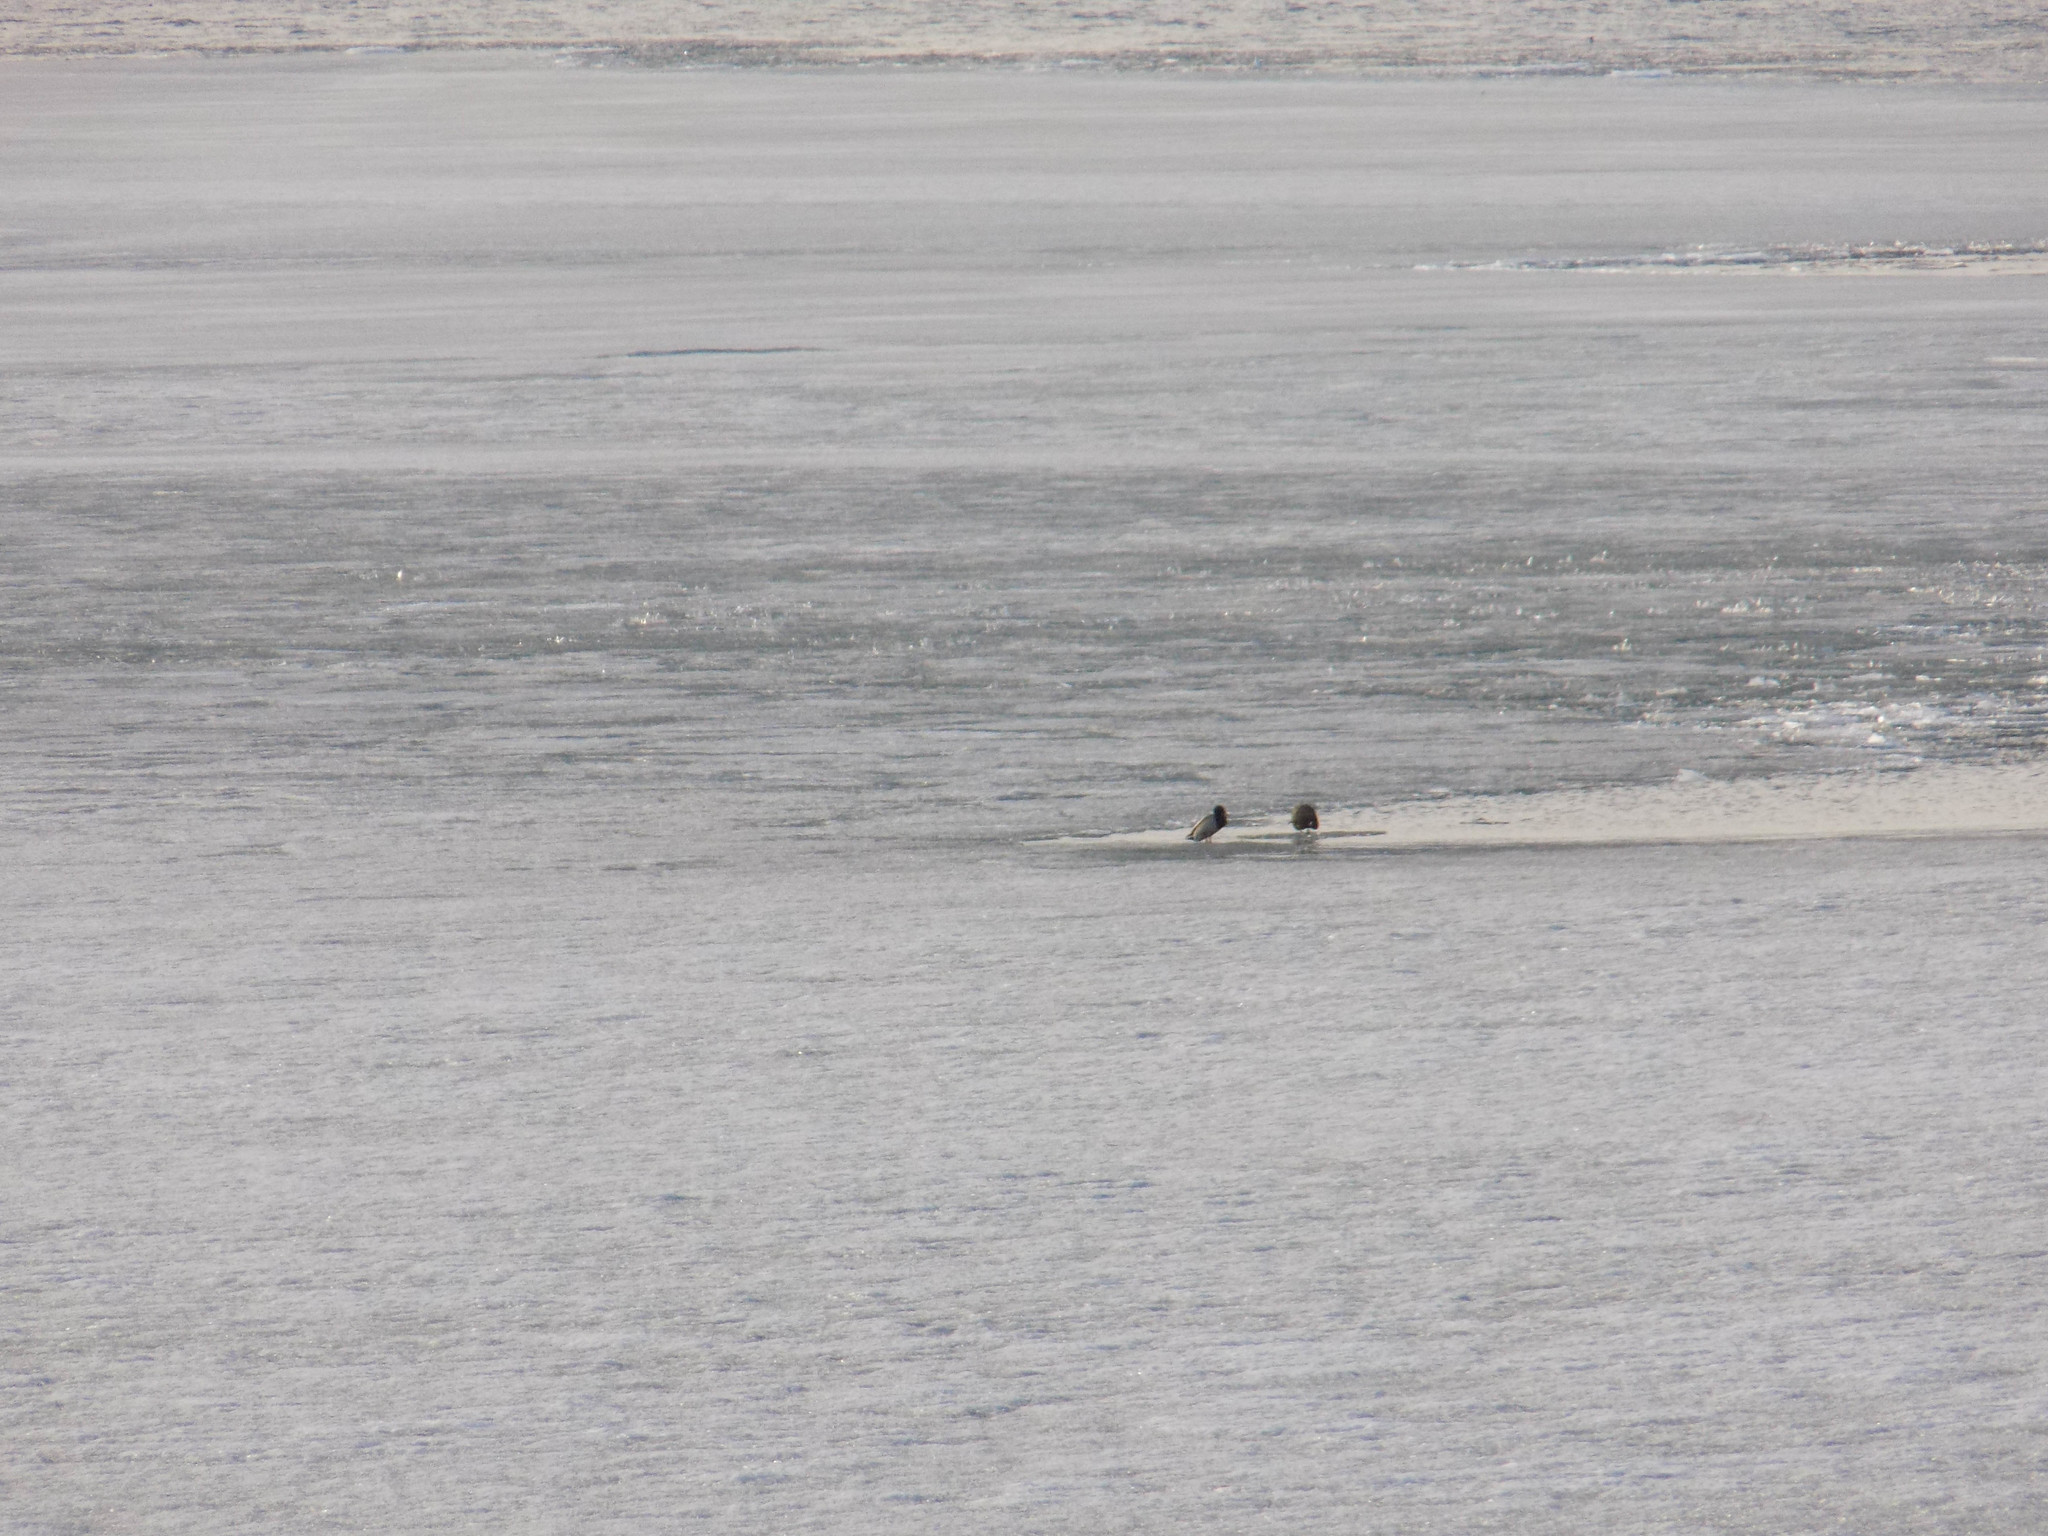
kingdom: Animalia
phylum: Chordata
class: Aves
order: Anseriformes
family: Anatidae
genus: Anas
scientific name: Anas platyrhynchos
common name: Mallard
